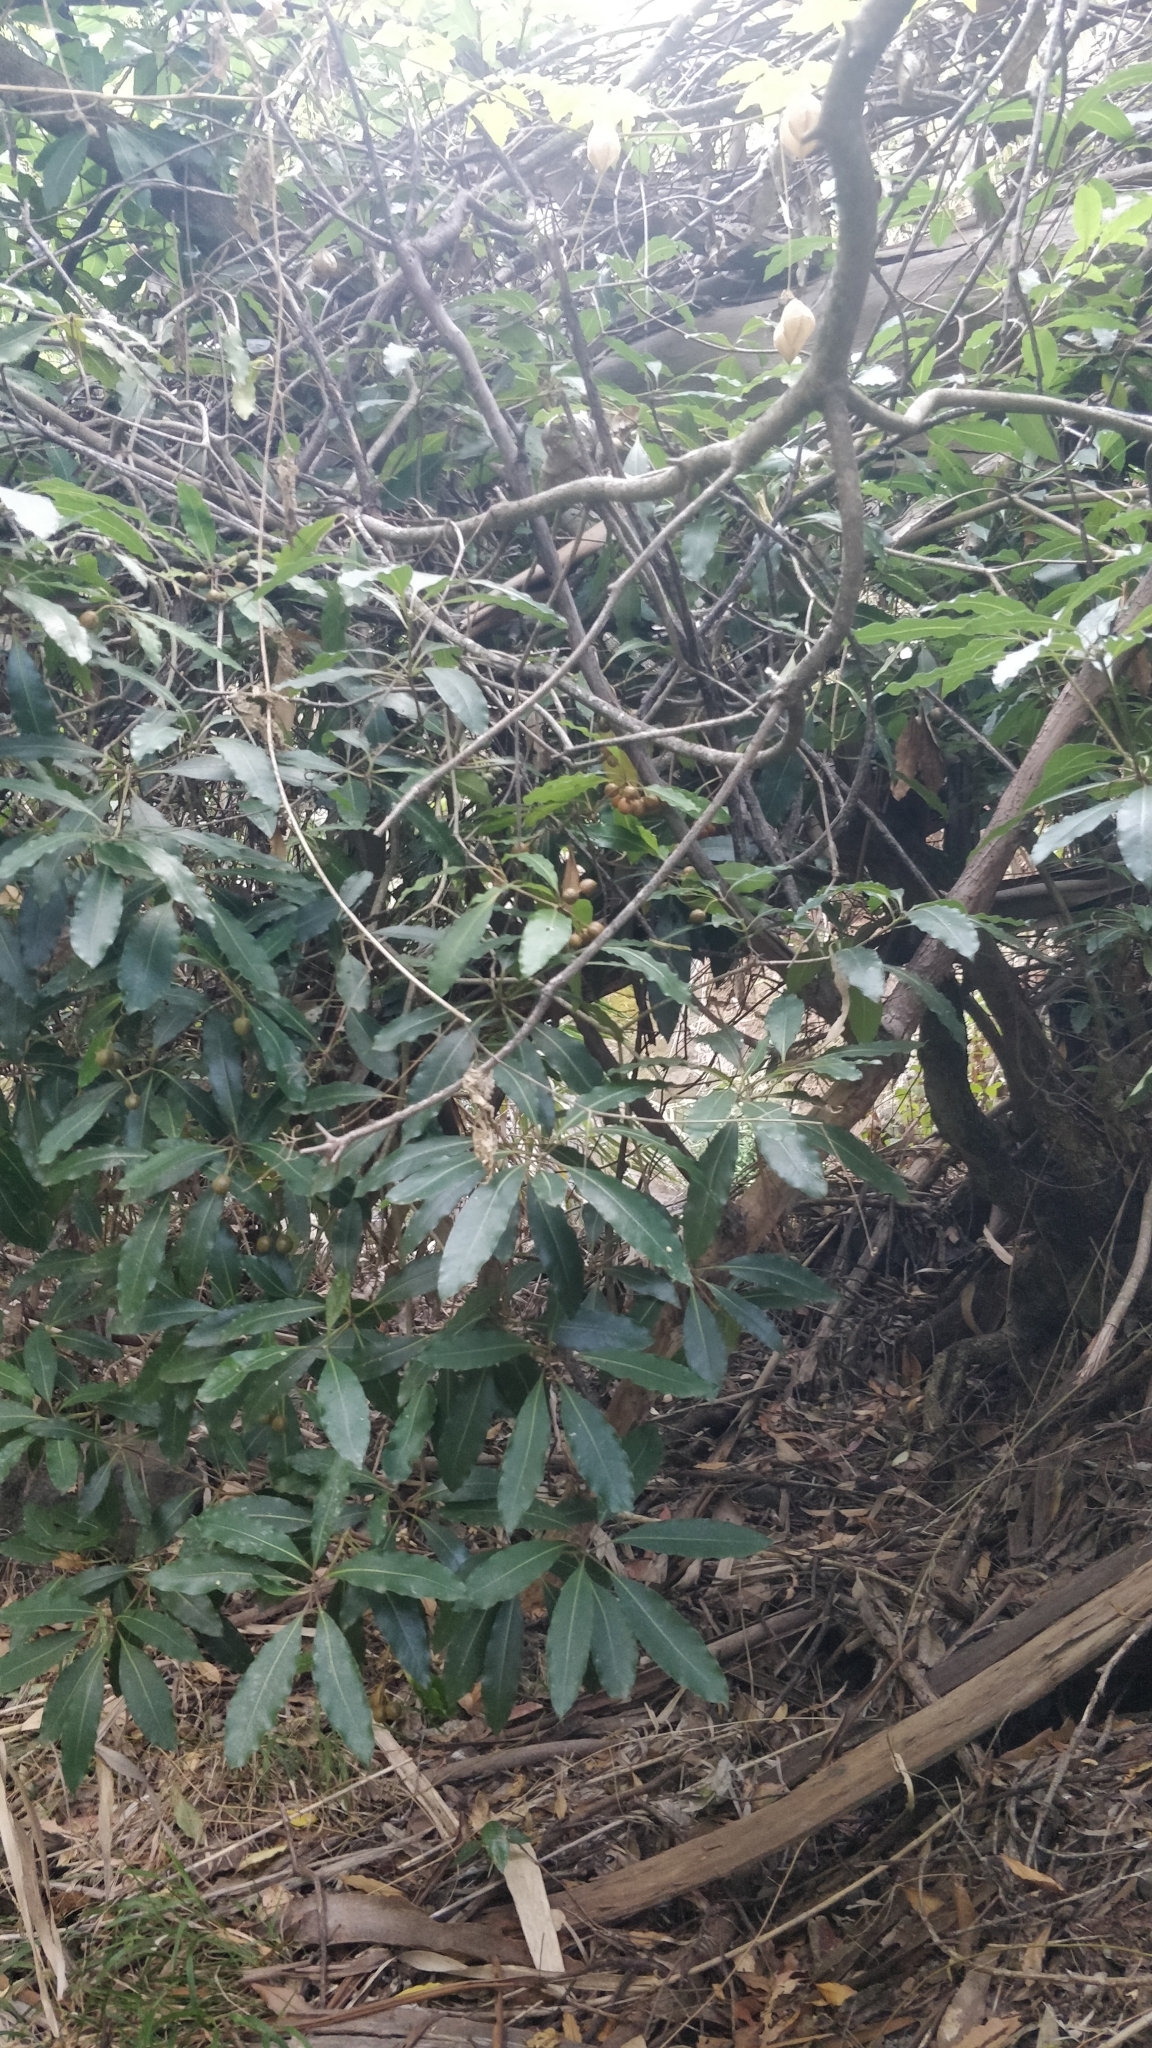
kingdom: Plantae
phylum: Tracheophyta
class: Magnoliopsida
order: Apiales
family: Pittosporaceae
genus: Pittosporum
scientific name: Pittosporum undulatum
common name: Australian cheesewood
